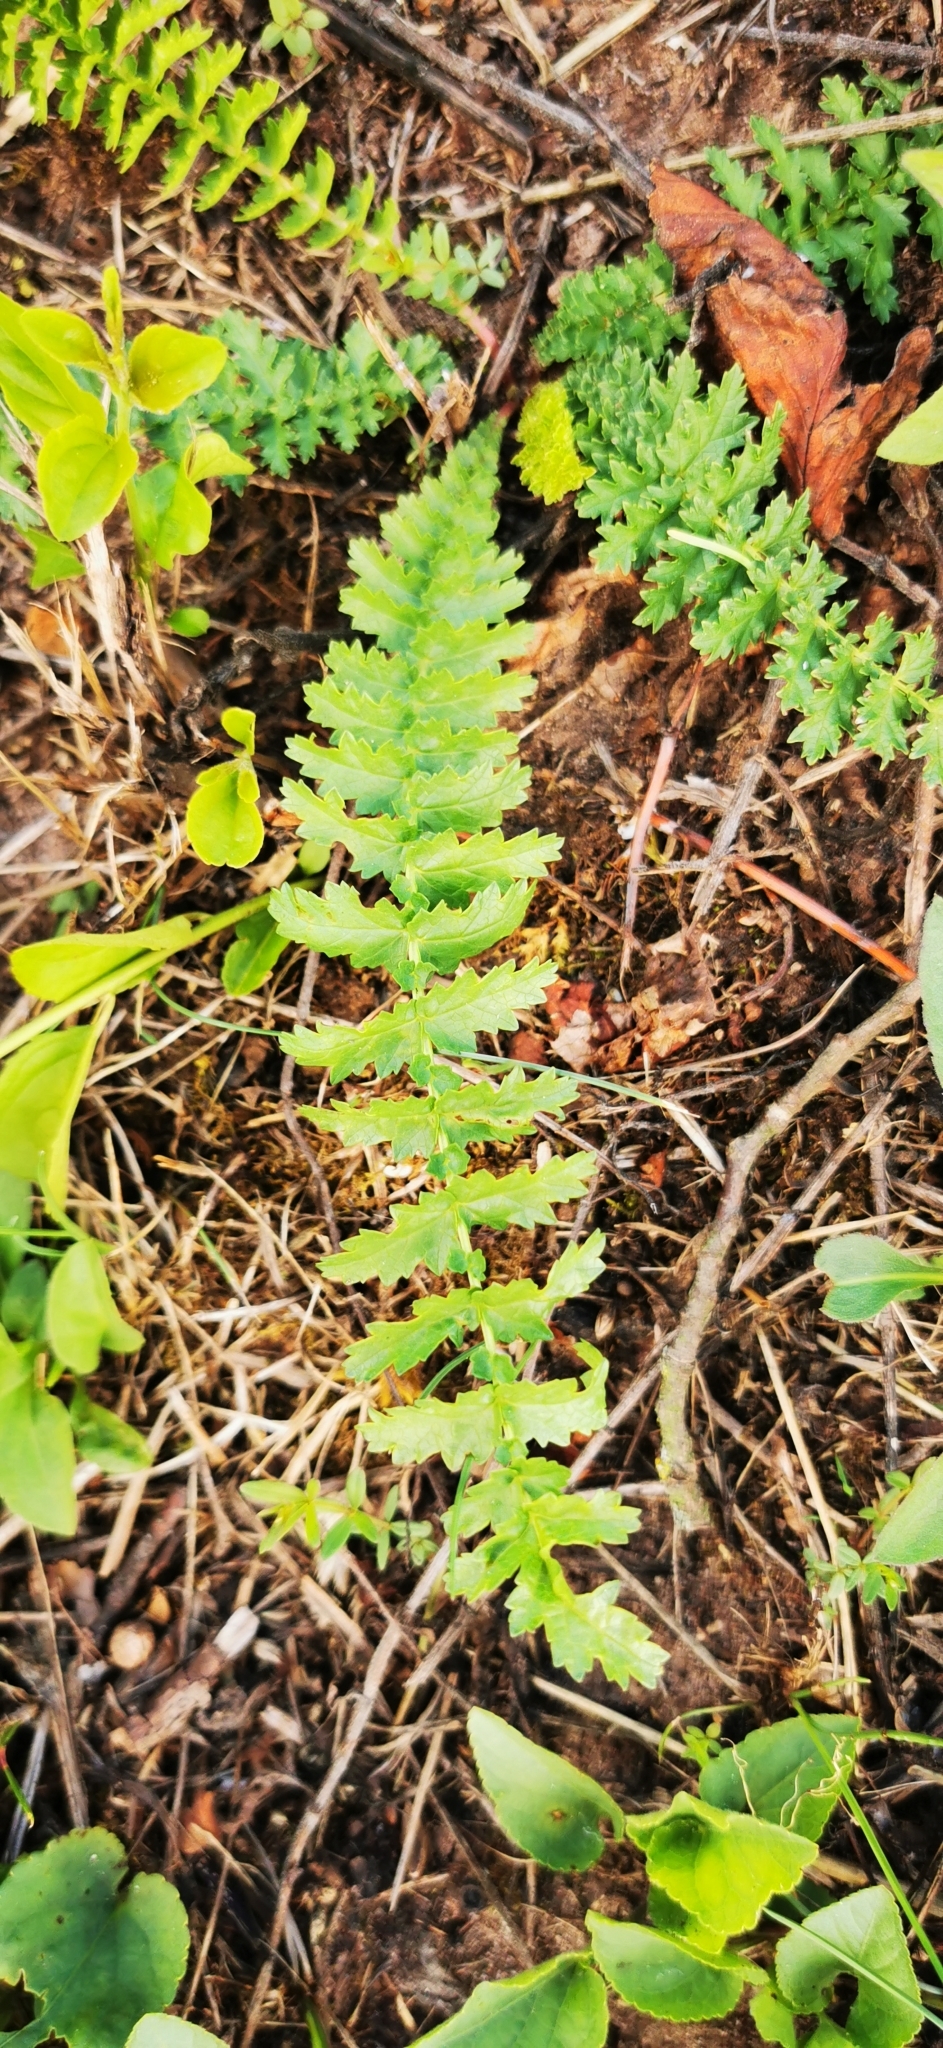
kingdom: Plantae
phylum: Tracheophyta
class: Magnoliopsida
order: Rosales
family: Rosaceae
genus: Filipendula
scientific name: Filipendula vulgaris
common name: Dropwort
